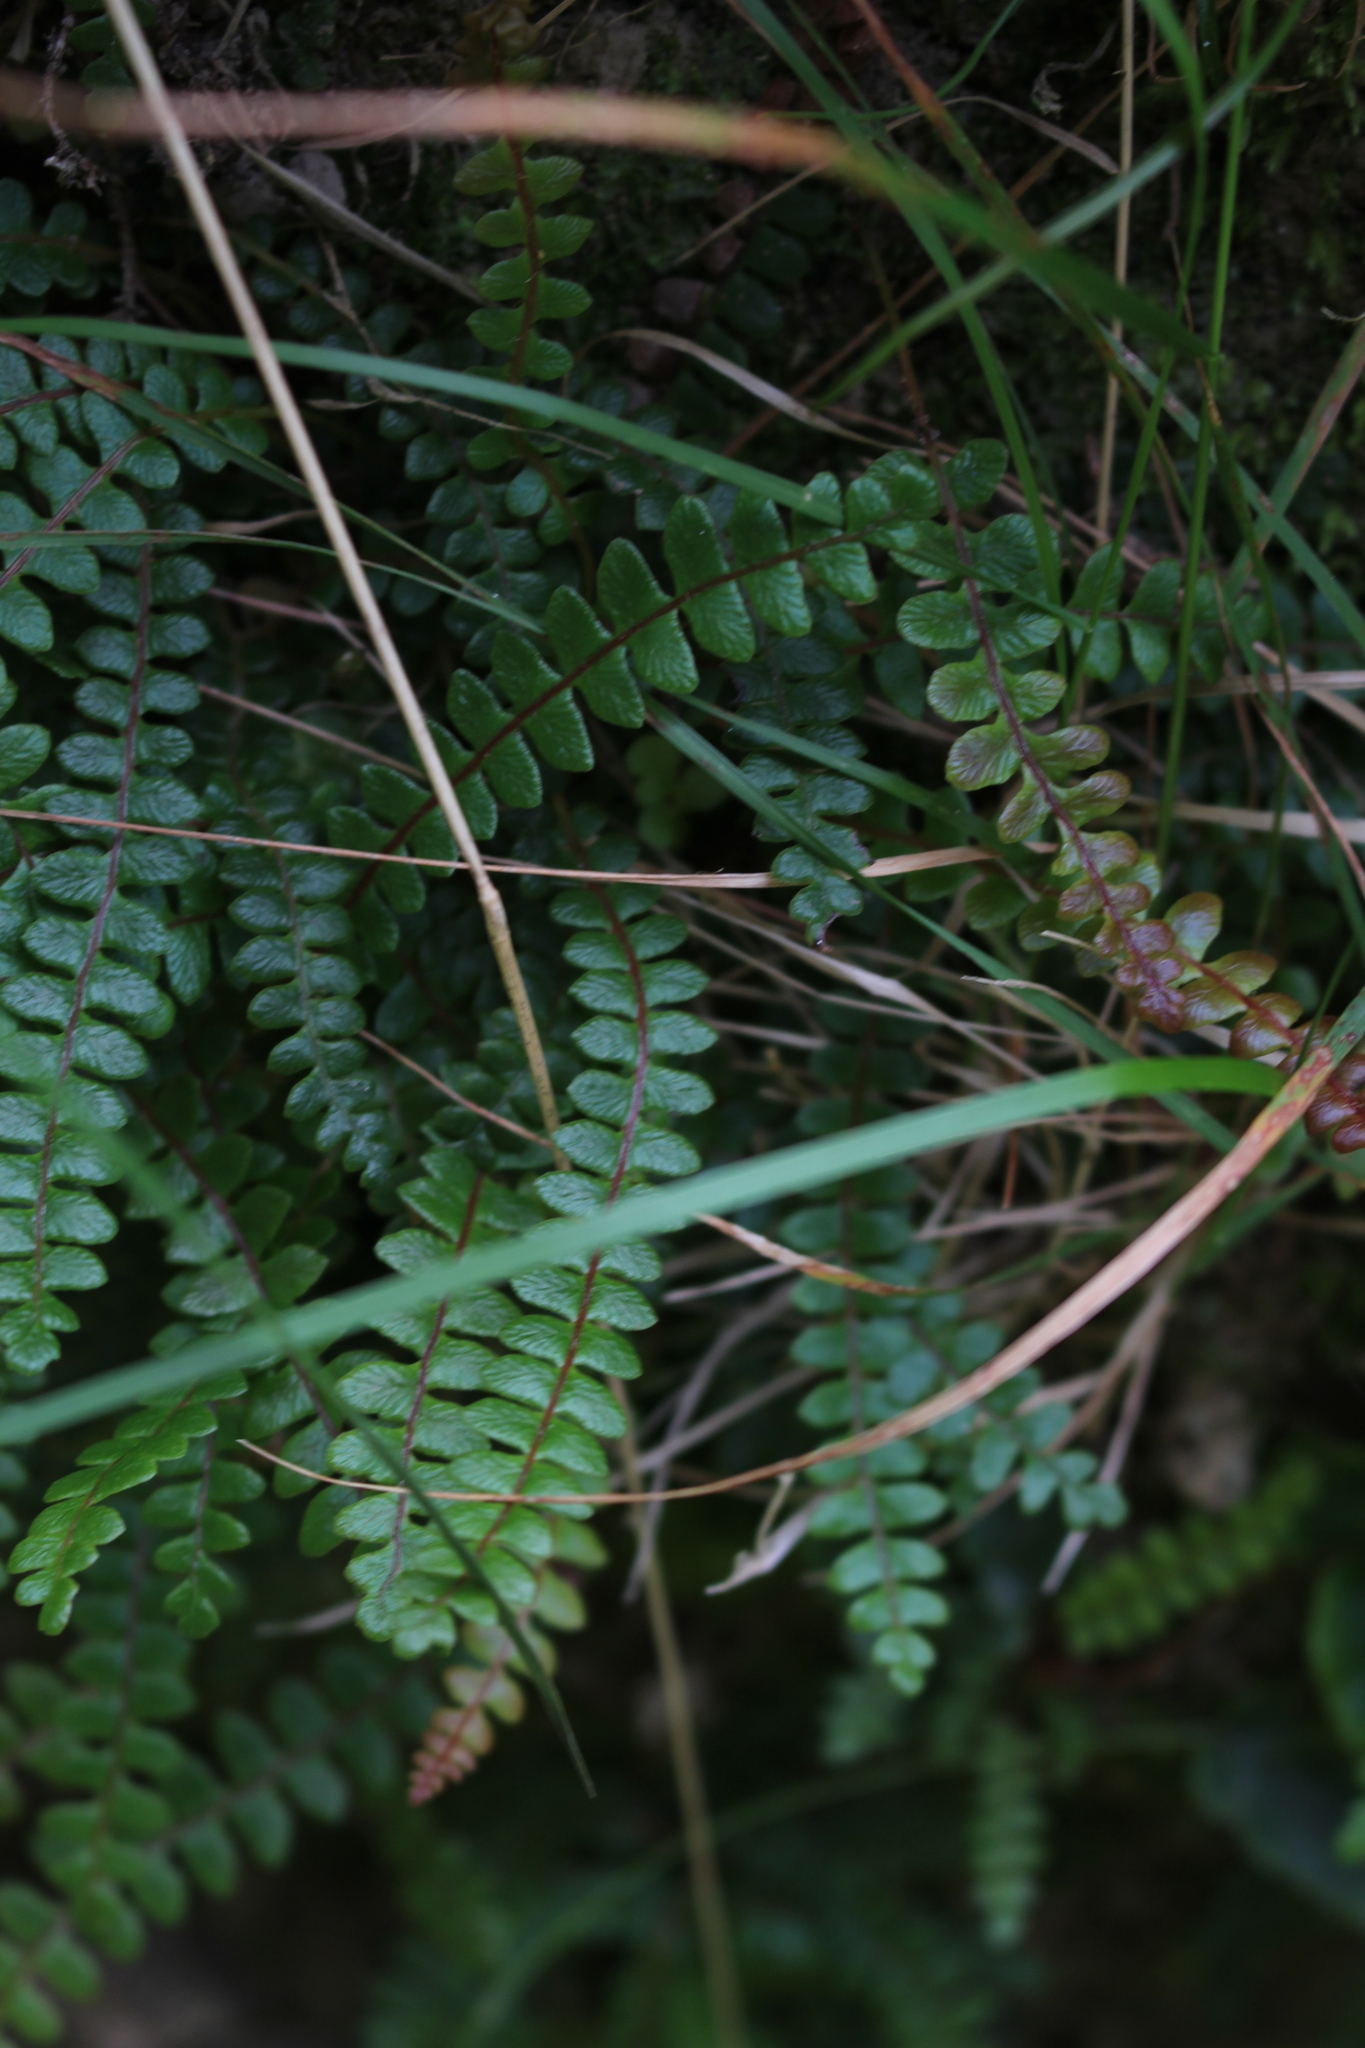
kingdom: Plantae
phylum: Tracheophyta
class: Polypodiopsida
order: Polypodiales
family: Blechnaceae
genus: Austroblechnum
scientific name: Austroblechnum penna-marina
